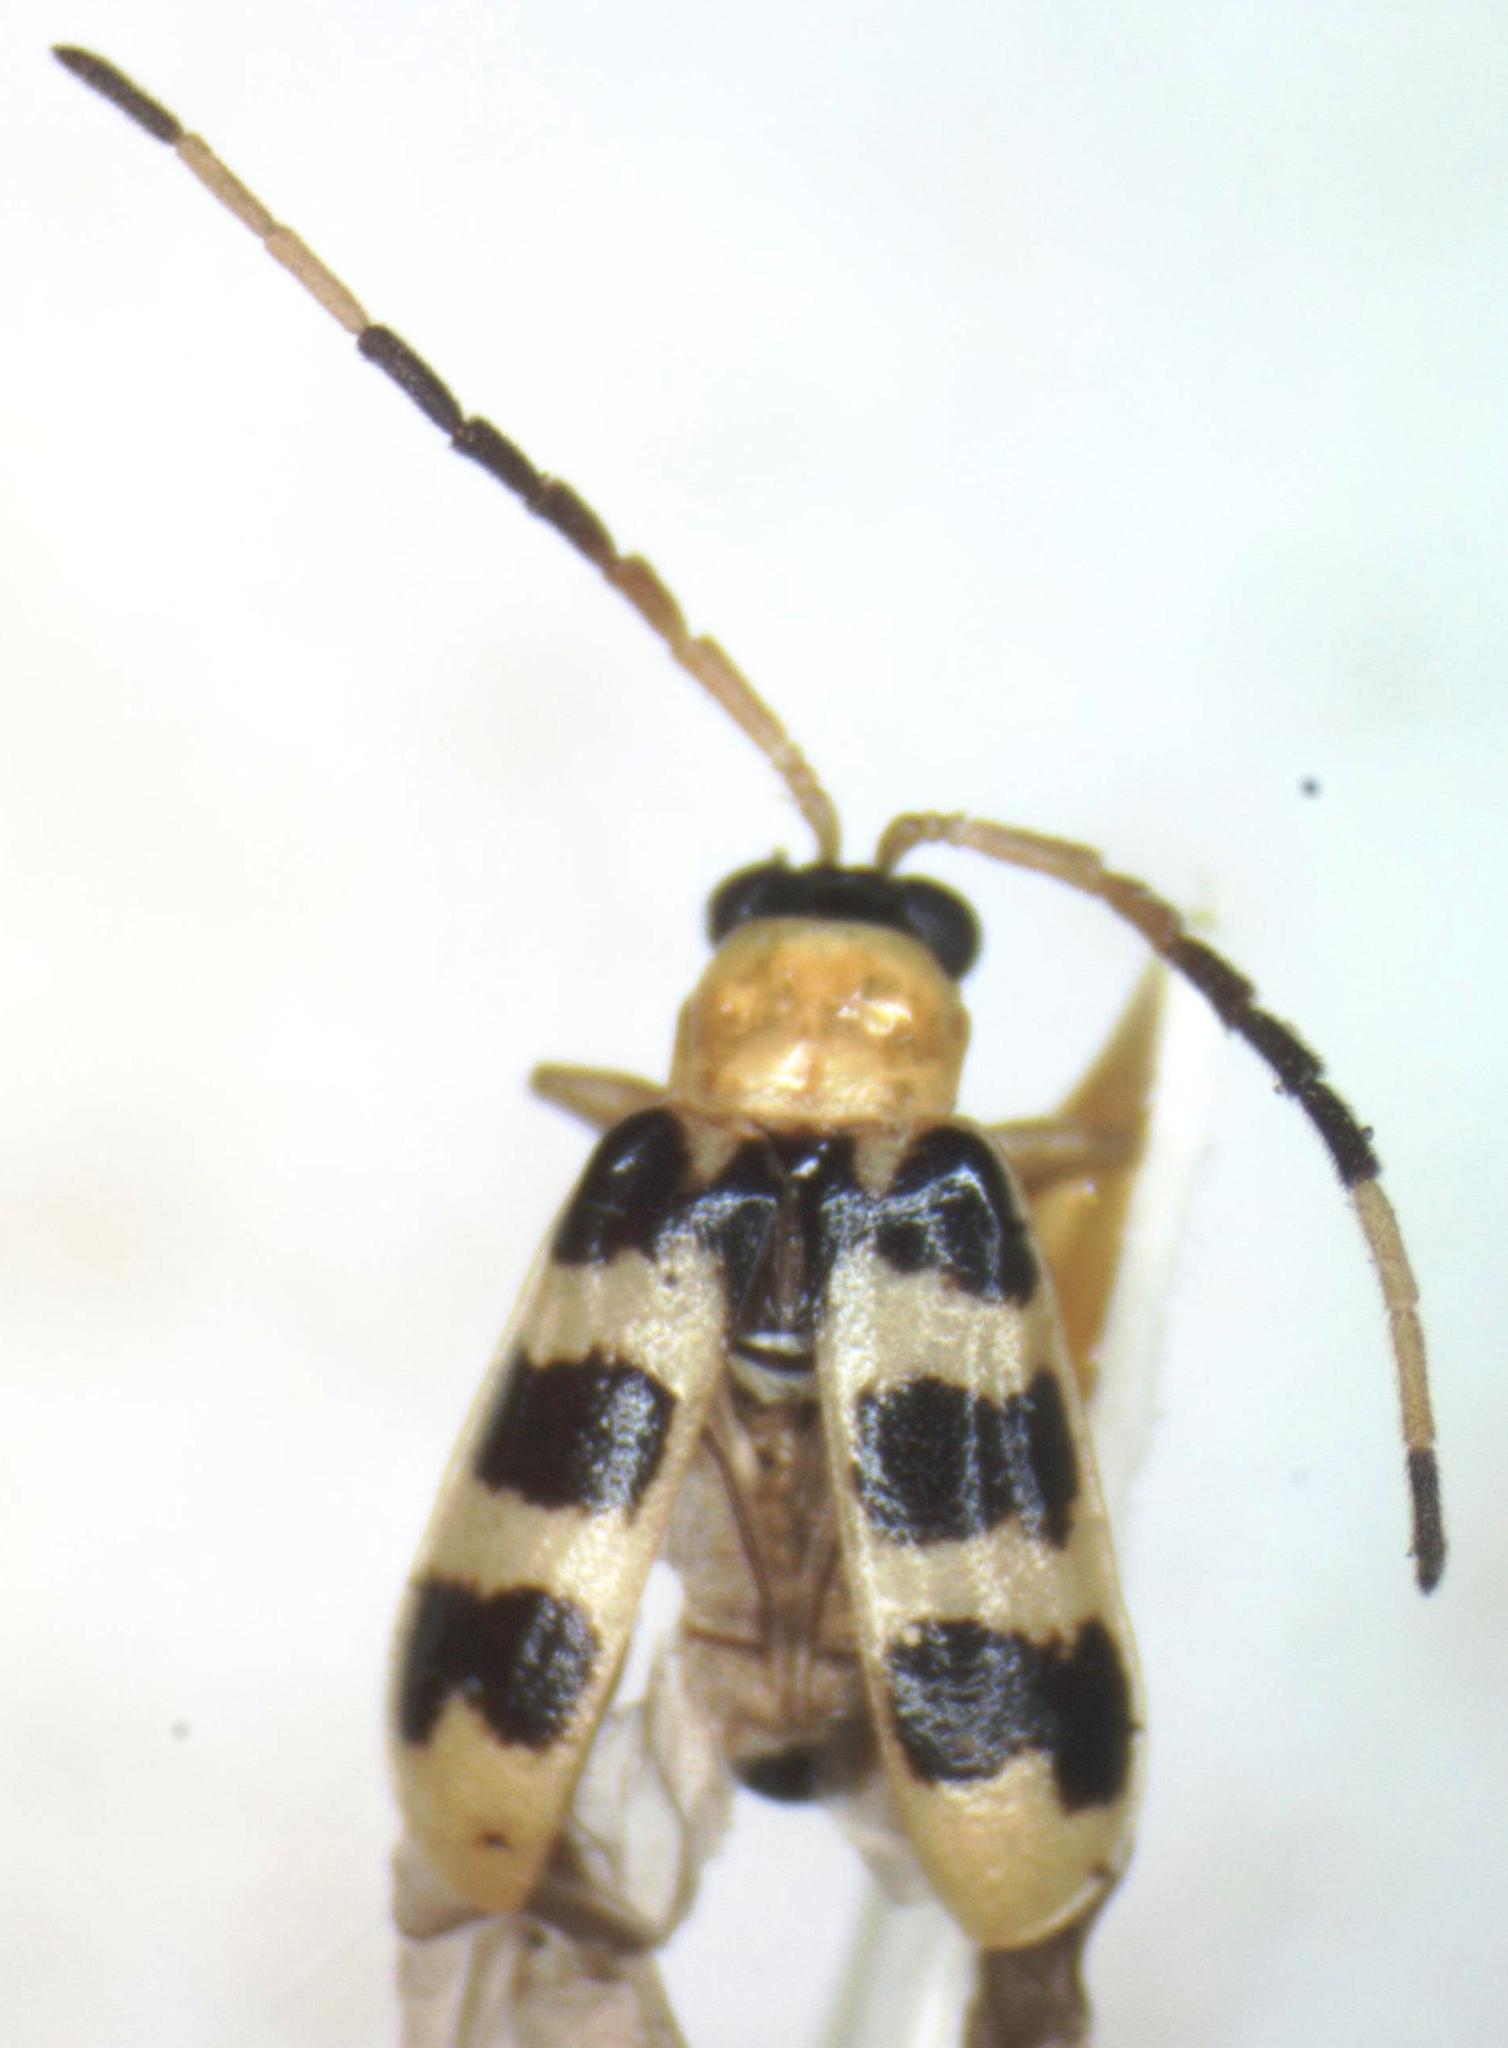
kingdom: Animalia
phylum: Arthropoda
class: Insecta
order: Coleoptera
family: Chrysomelidae
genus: Diabrotica
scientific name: Diabrotica
